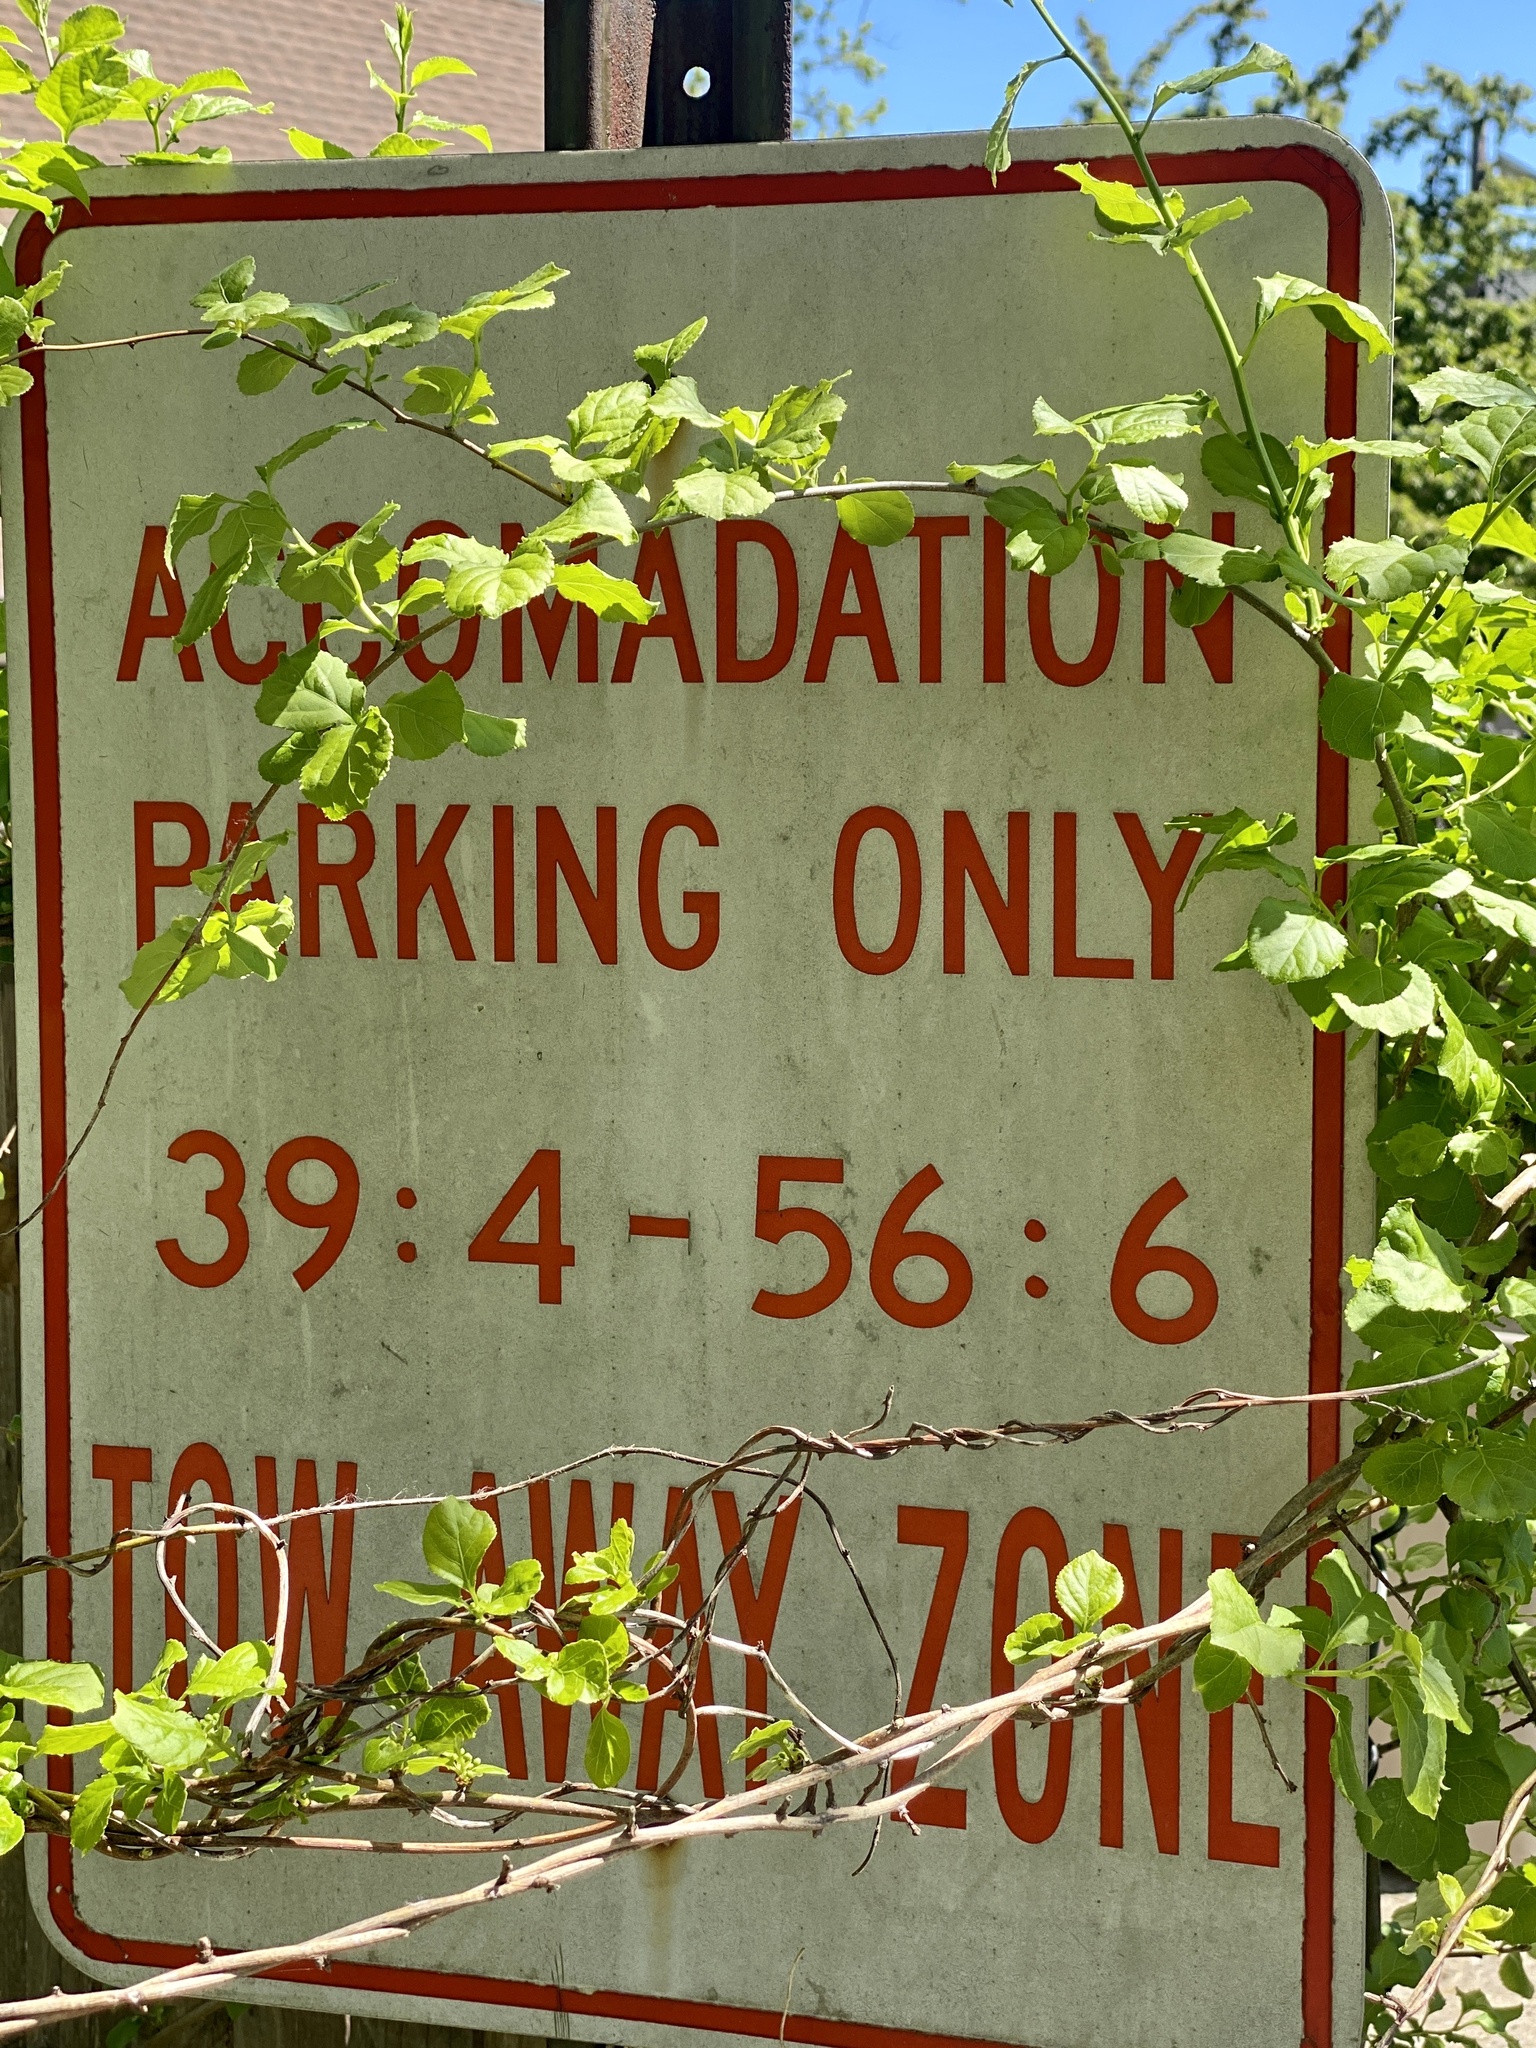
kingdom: Plantae
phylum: Tracheophyta
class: Magnoliopsida
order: Celastrales
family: Celastraceae
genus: Celastrus
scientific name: Celastrus orbiculatus
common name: Oriental bittersweet
